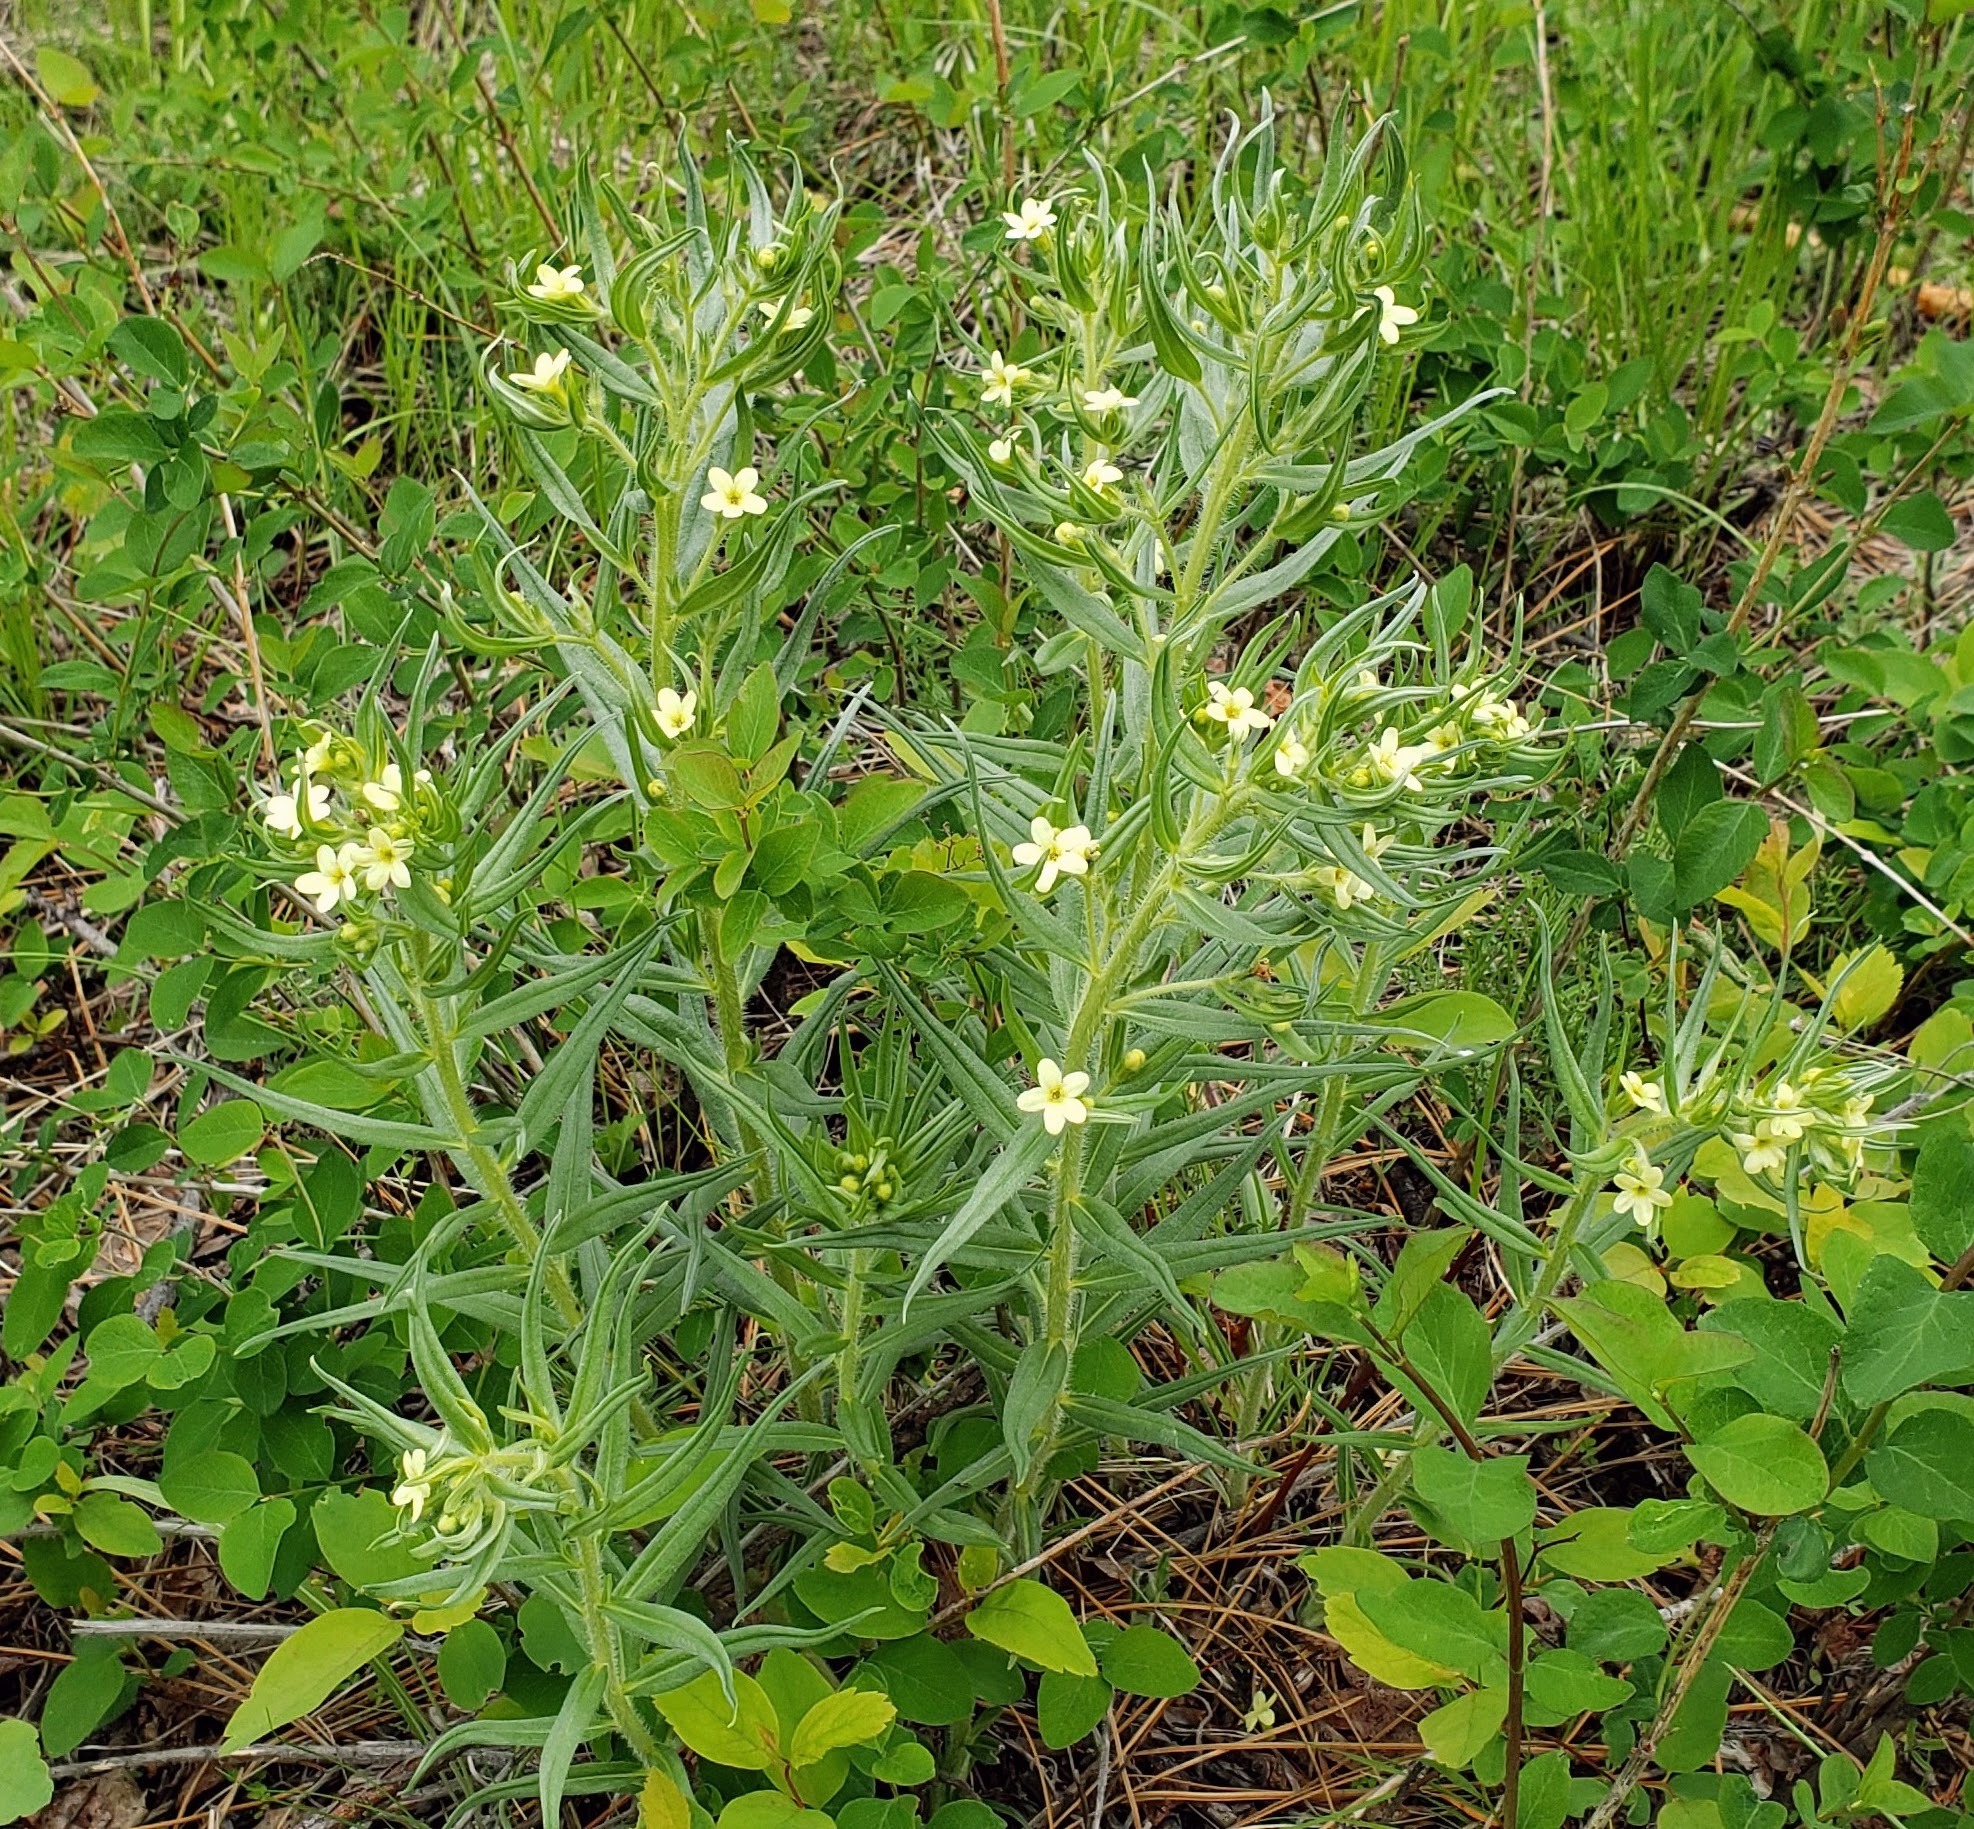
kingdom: Plantae
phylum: Tracheophyta
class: Magnoliopsida
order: Boraginales
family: Boraginaceae
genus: Lithospermum
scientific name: Lithospermum ruderale
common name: Western gromwell
